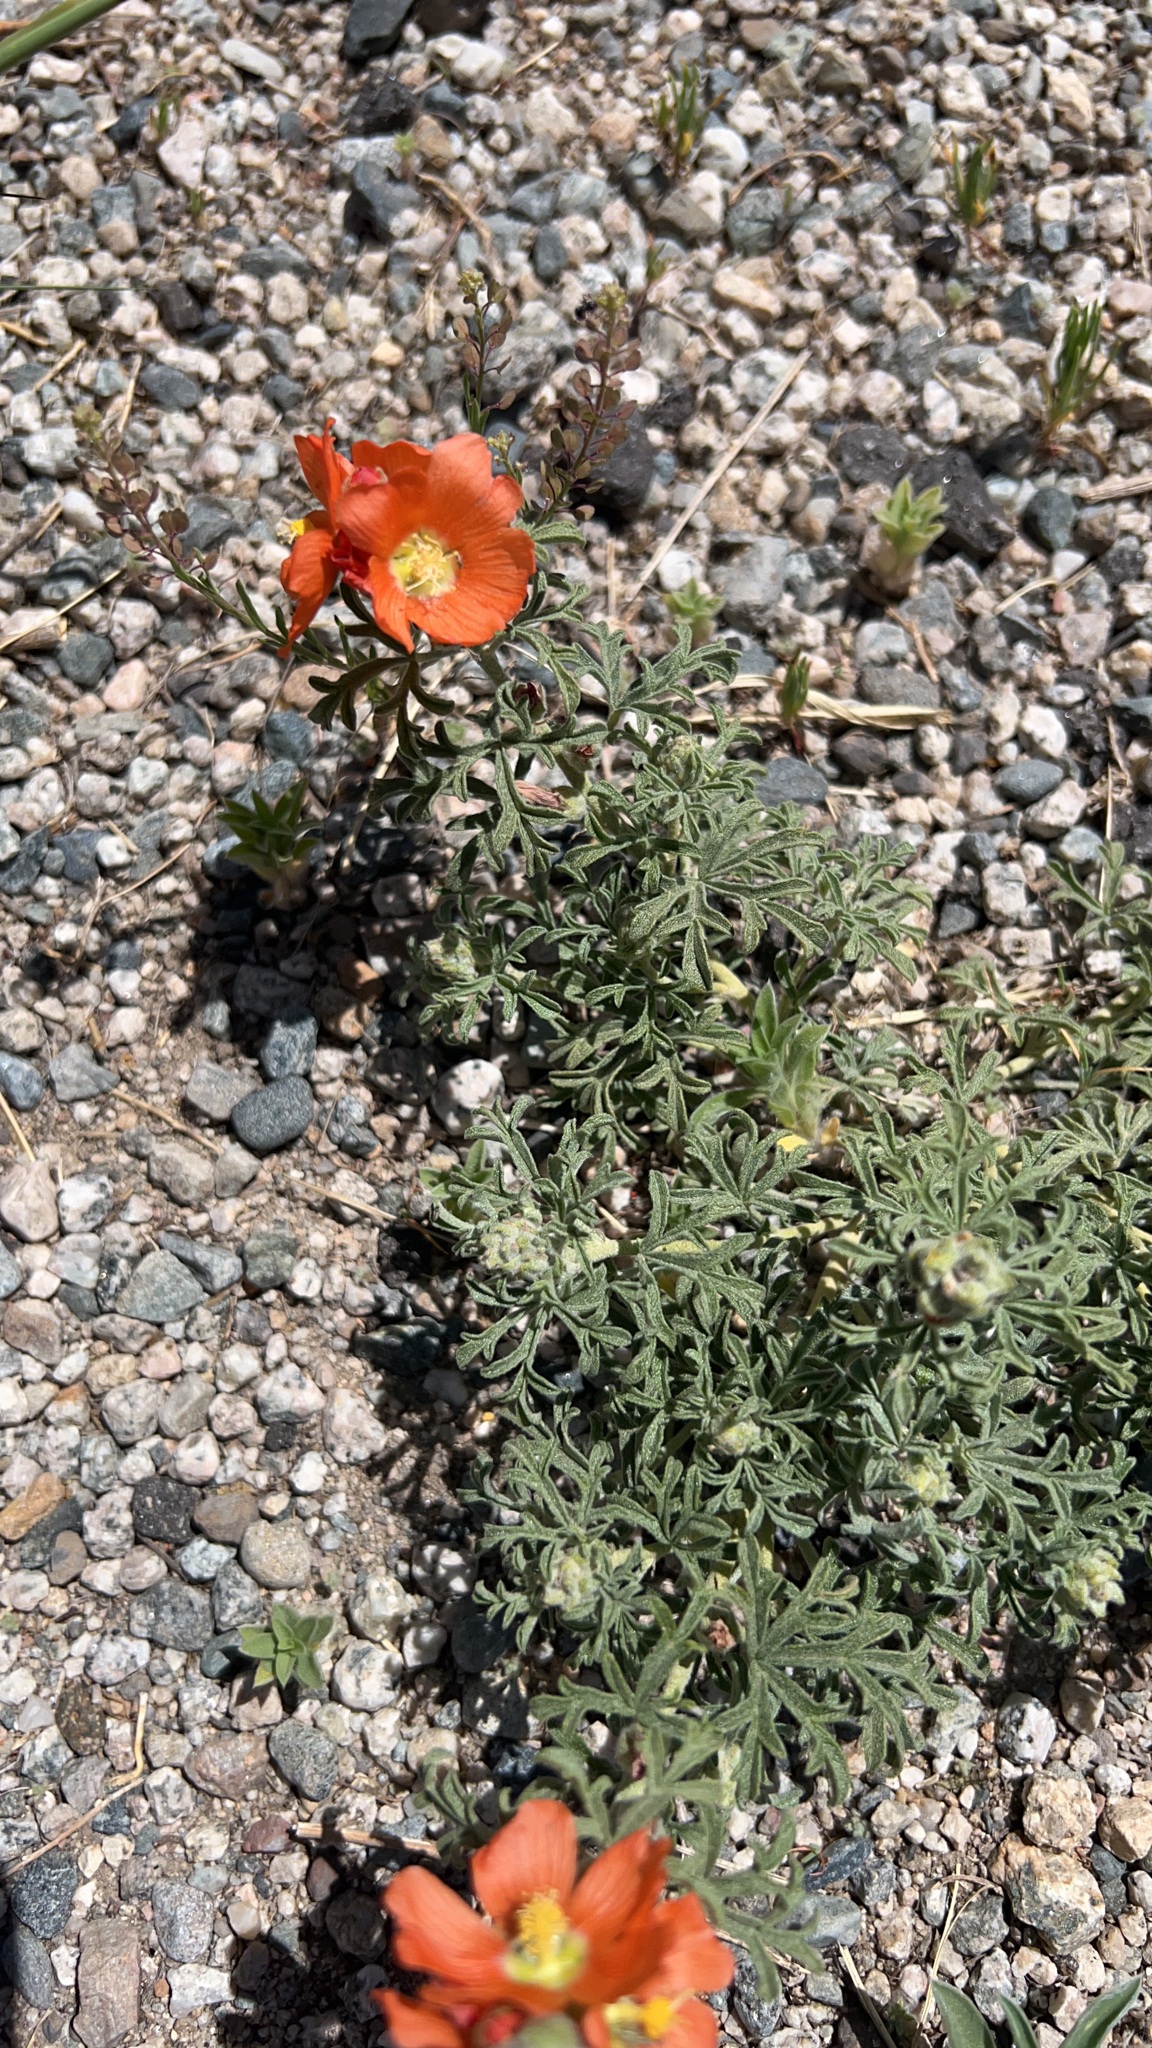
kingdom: Plantae
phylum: Tracheophyta
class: Magnoliopsida
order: Malvales
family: Malvaceae
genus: Sphaeralcea
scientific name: Sphaeralcea coccinea
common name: Moss-rose
